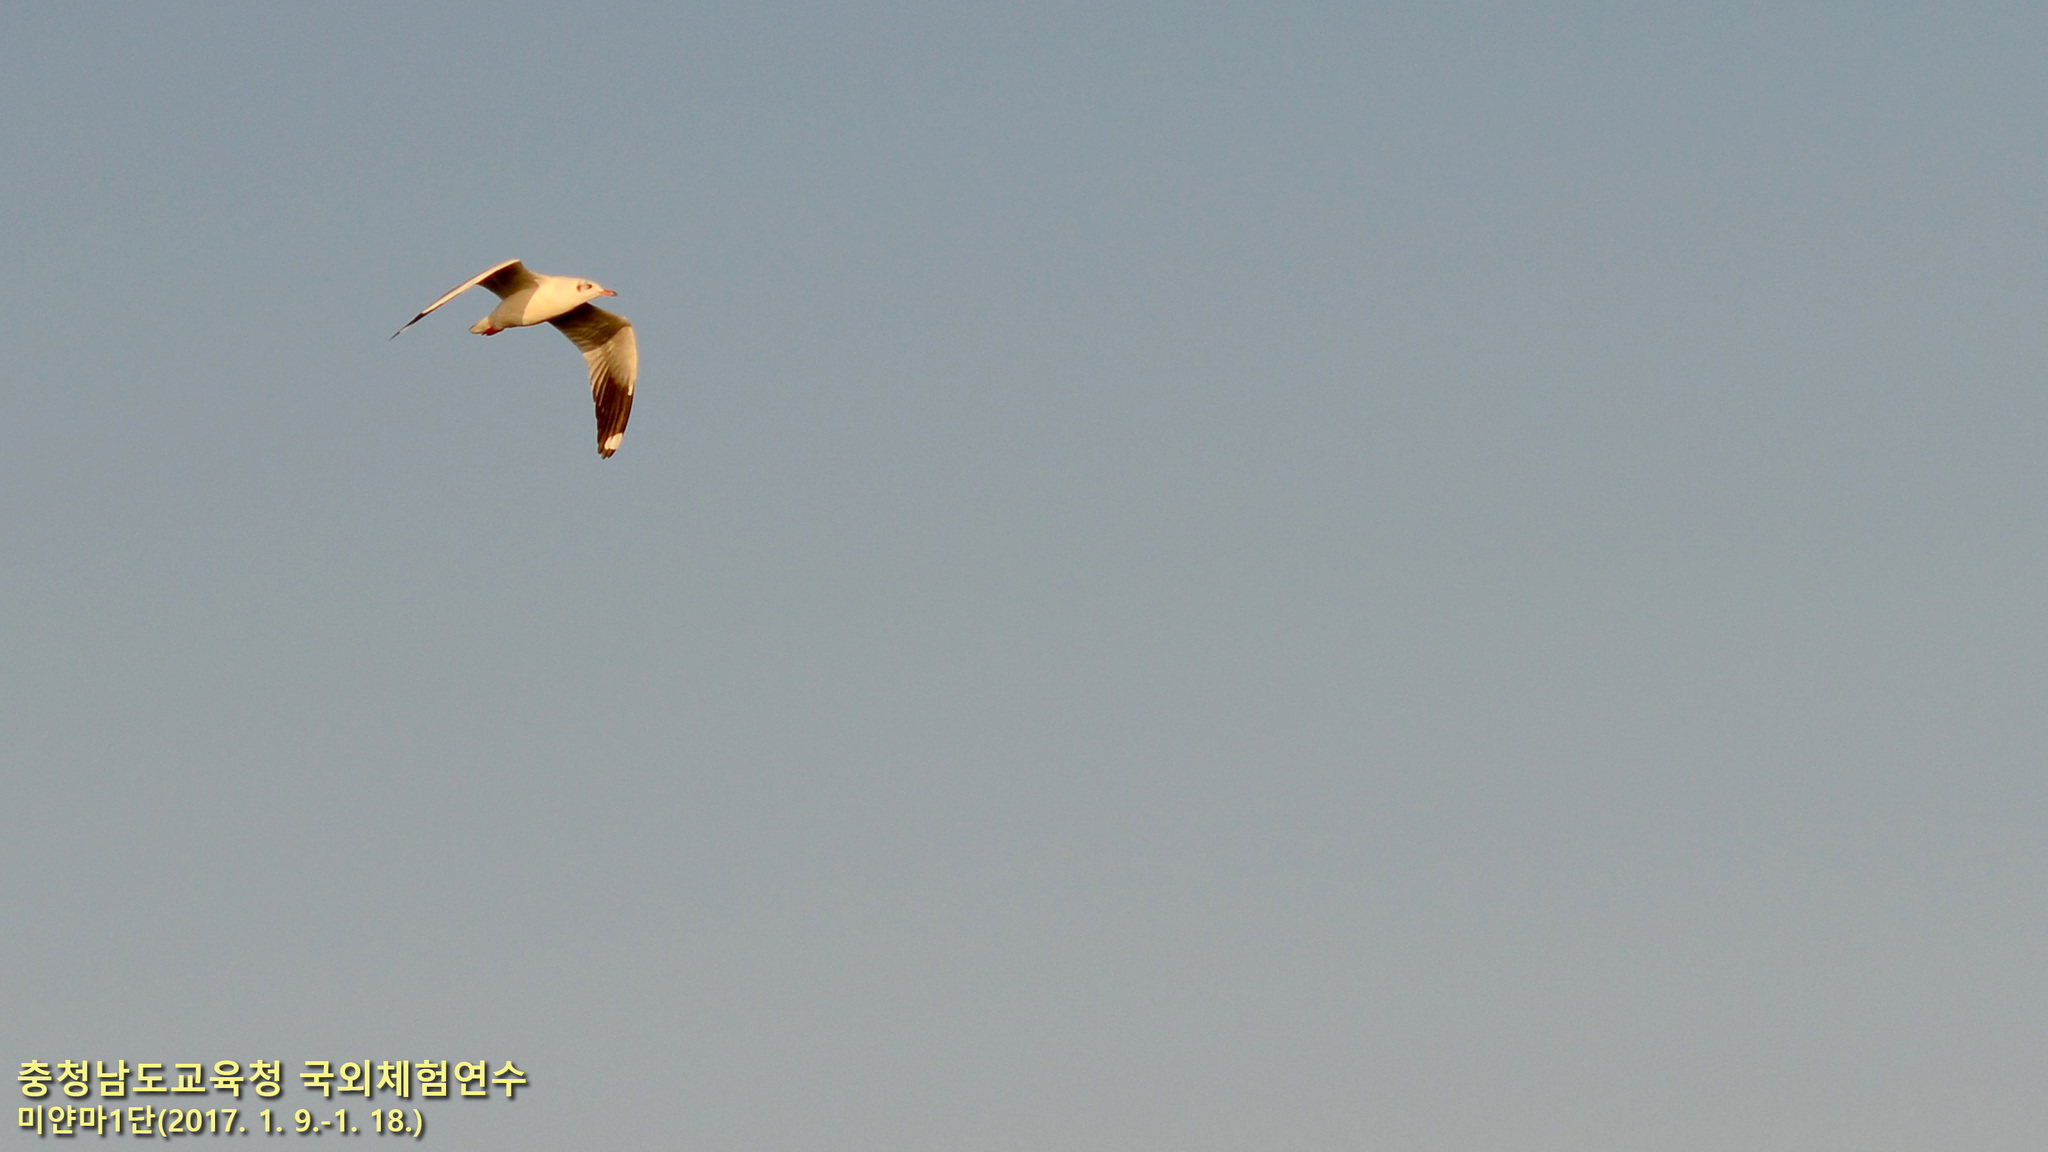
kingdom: Animalia
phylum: Chordata
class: Aves
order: Charadriiformes
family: Laridae
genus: Chroicocephalus
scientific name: Chroicocephalus brunnicephalus
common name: Brown-headed gull
